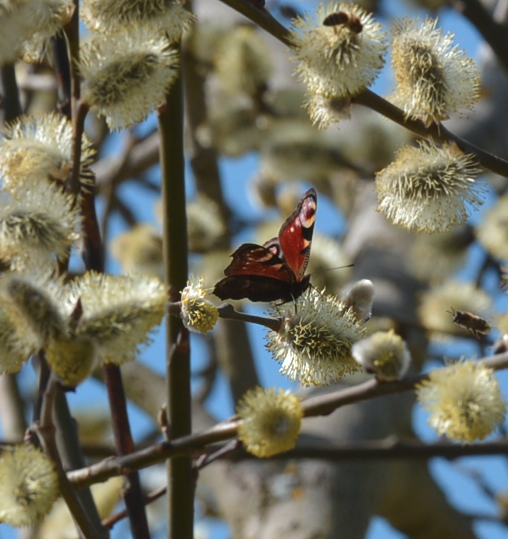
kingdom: Animalia
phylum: Arthropoda
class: Insecta
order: Lepidoptera
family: Nymphalidae
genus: Aglais
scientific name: Aglais io
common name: Peacock
